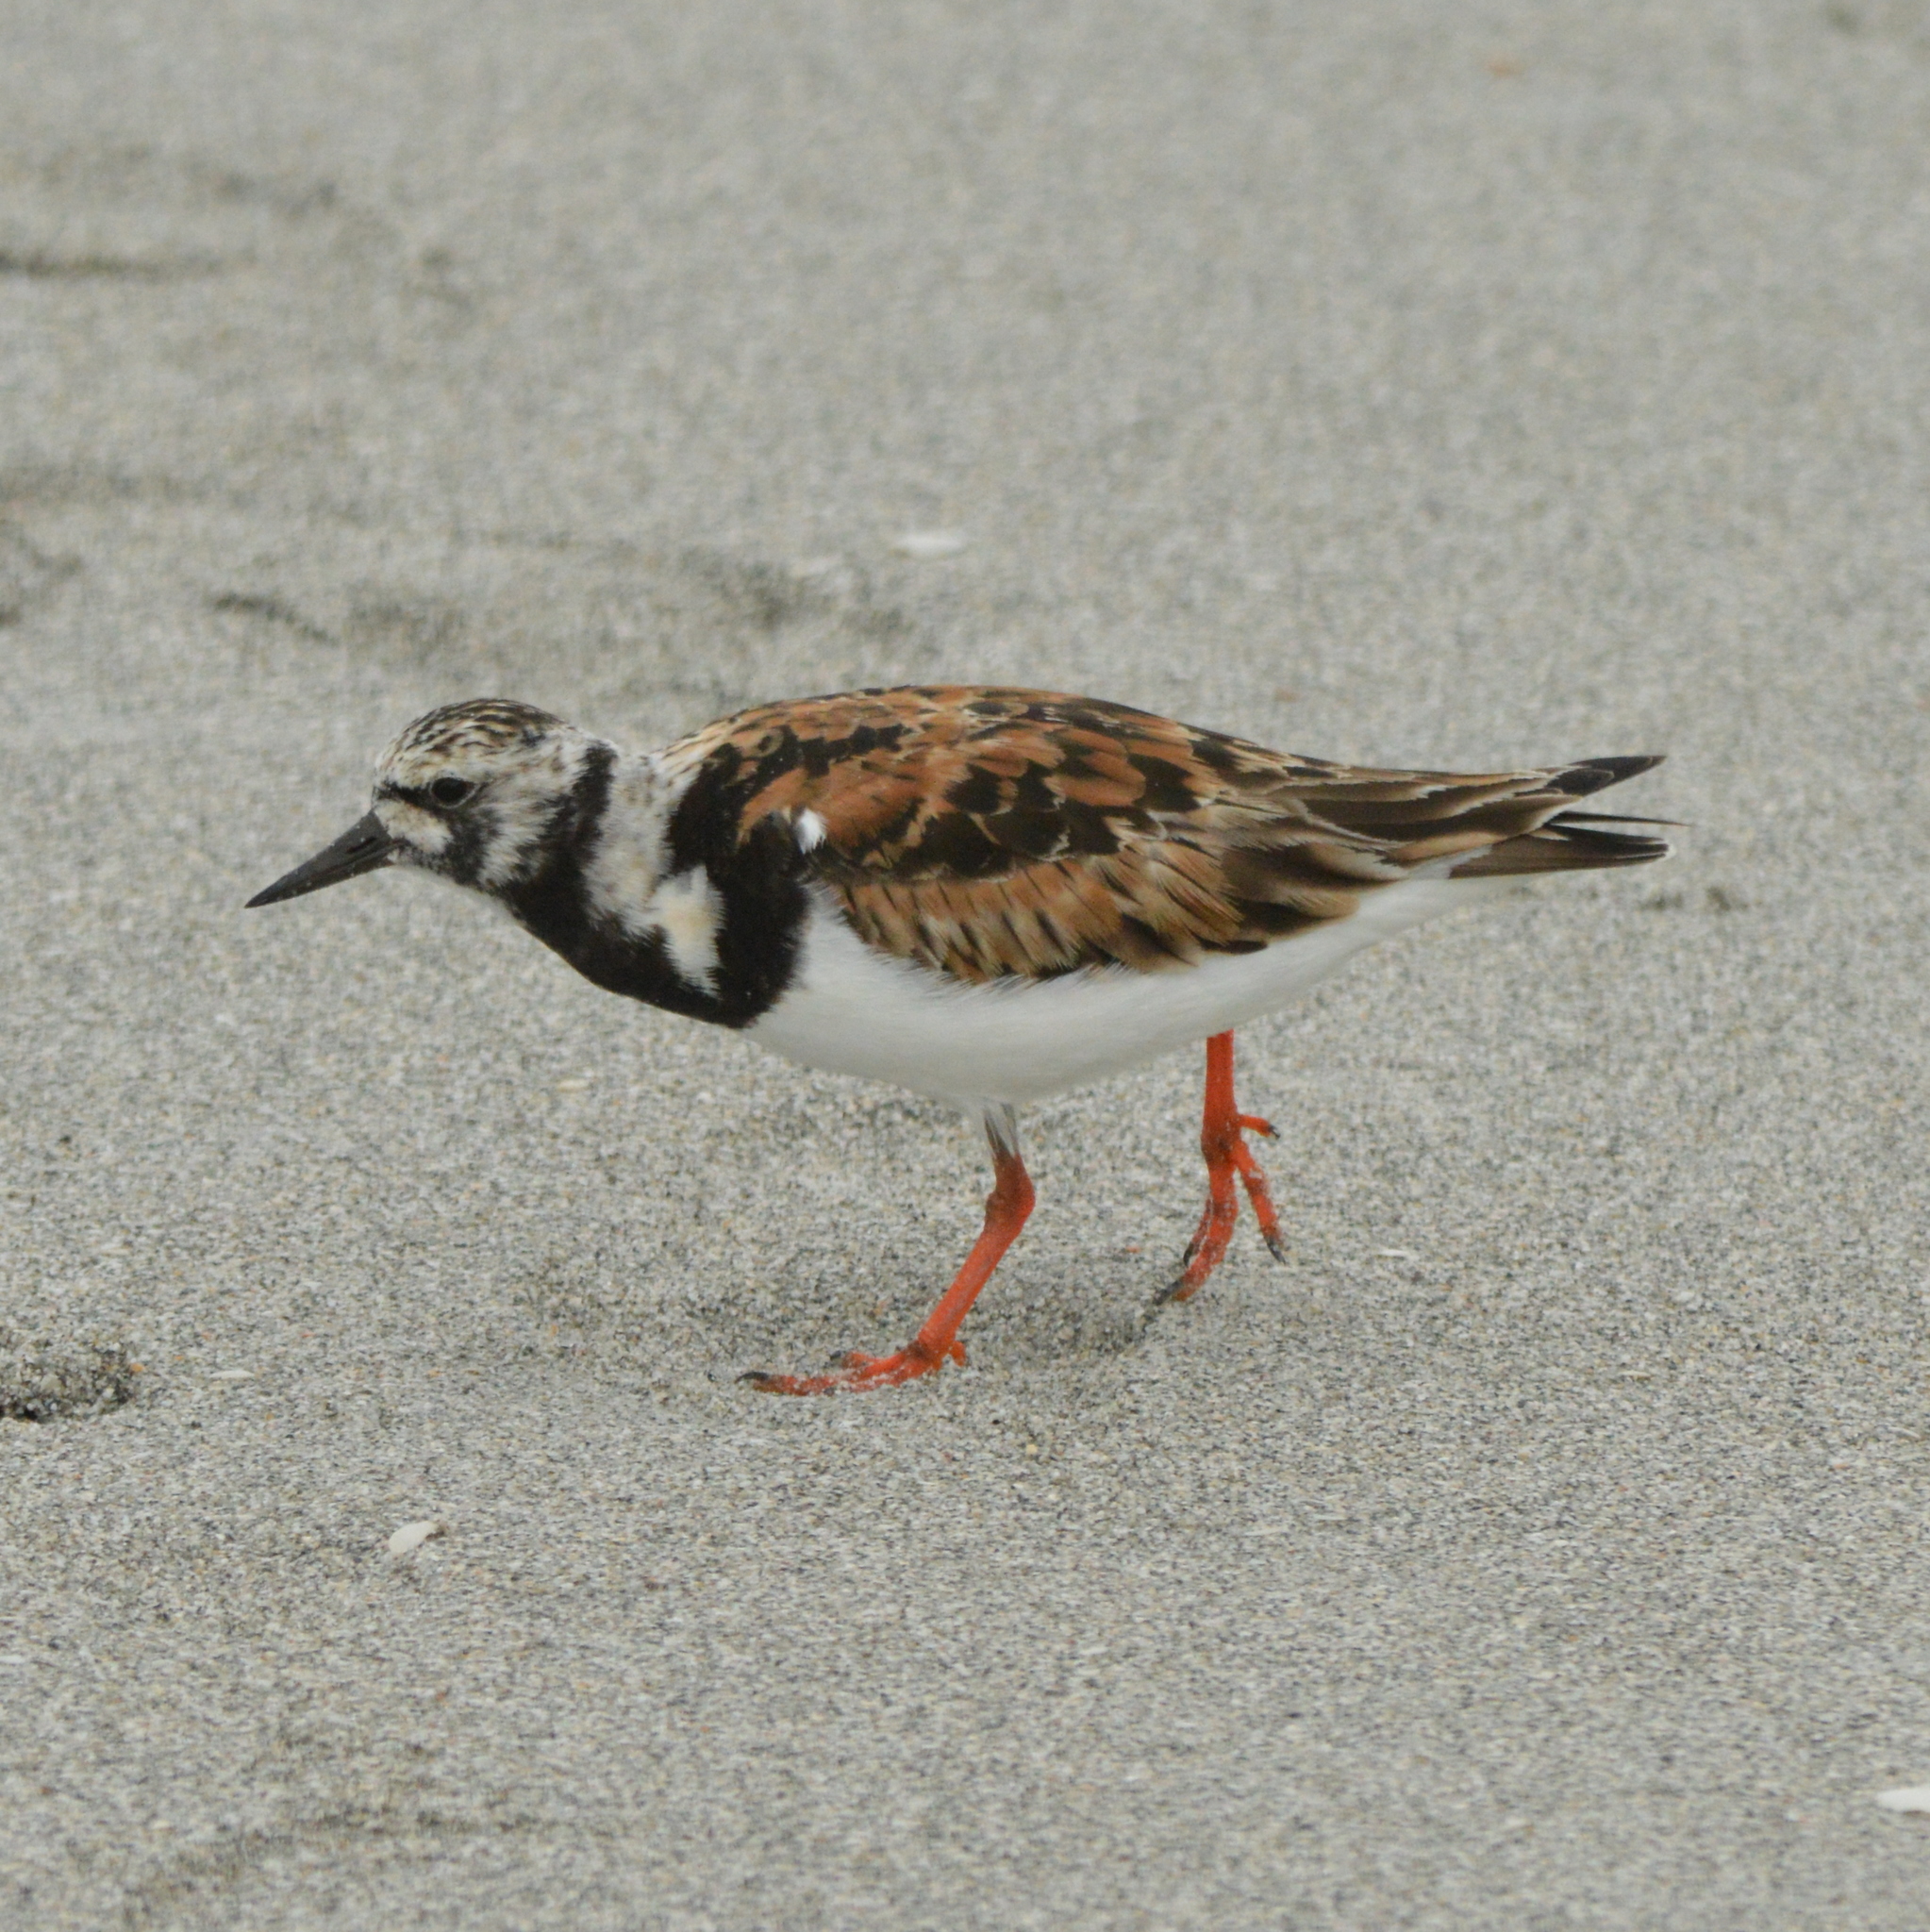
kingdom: Animalia
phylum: Chordata
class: Aves
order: Charadriiformes
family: Scolopacidae
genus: Arenaria
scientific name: Arenaria interpres
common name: Ruddy turnstone
